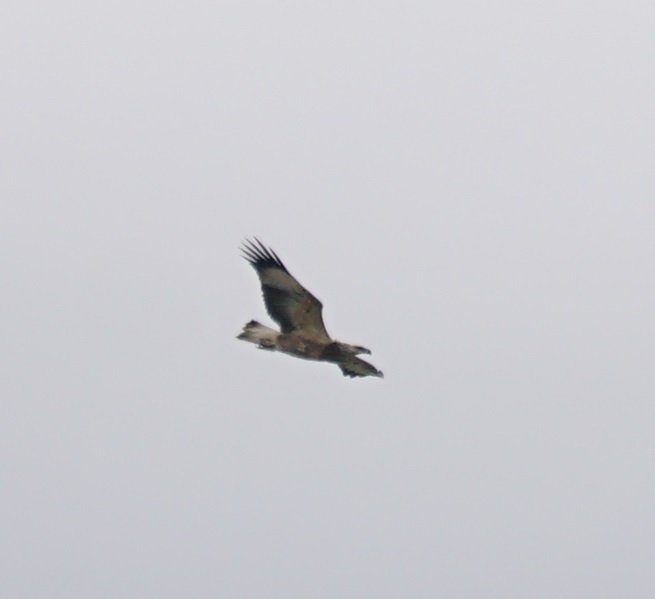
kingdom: Animalia
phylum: Chordata
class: Aves
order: Accipitriformes
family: Accipitridae
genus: Haliaeetus
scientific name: Haliaeetus leucogaster
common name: White-bellied sea eagle
